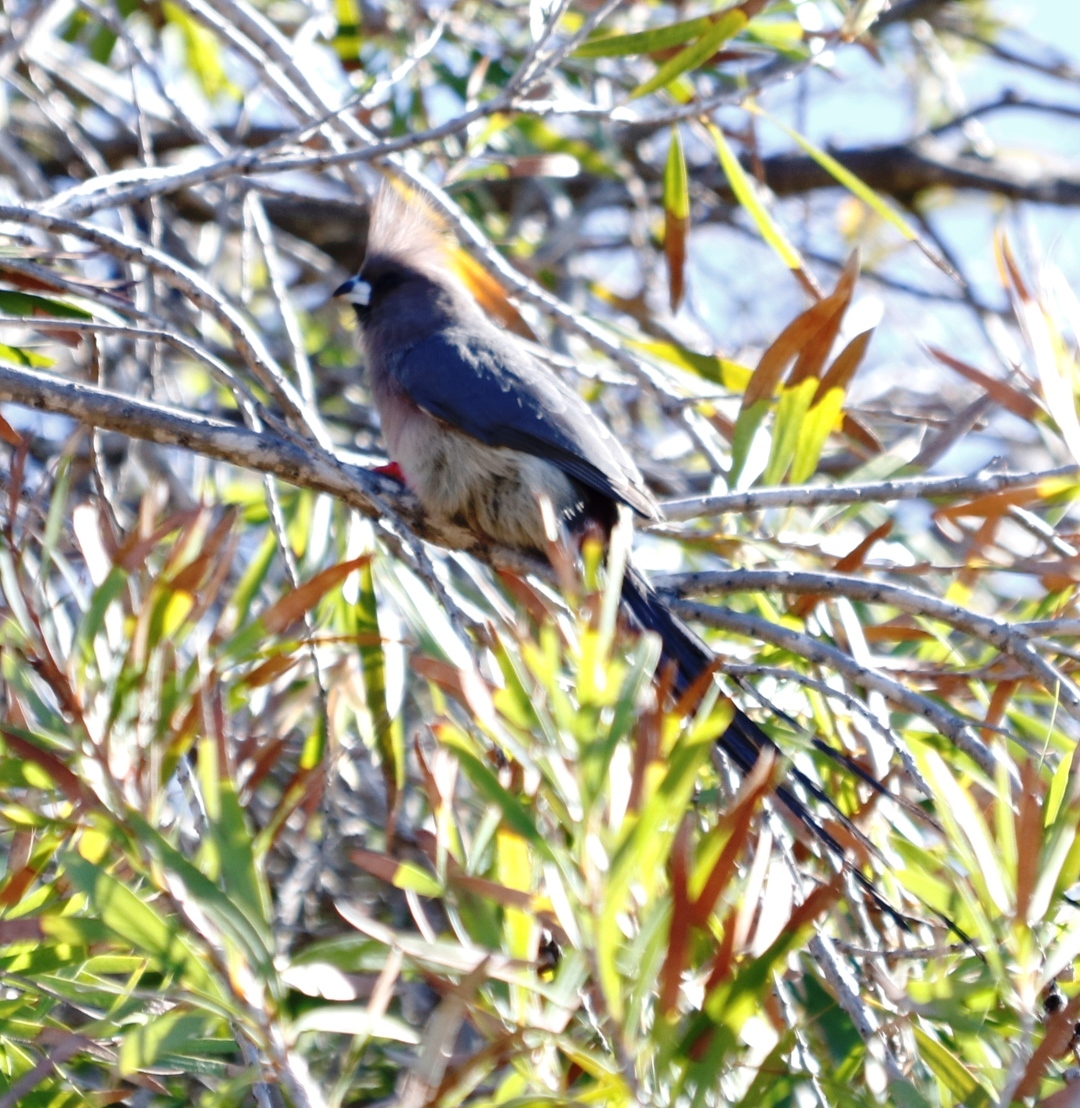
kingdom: Animalia
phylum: Chordata
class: Aves
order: Coliiformes
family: Coliidae
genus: Colius
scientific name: Colius colius
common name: White-backed mousebird
